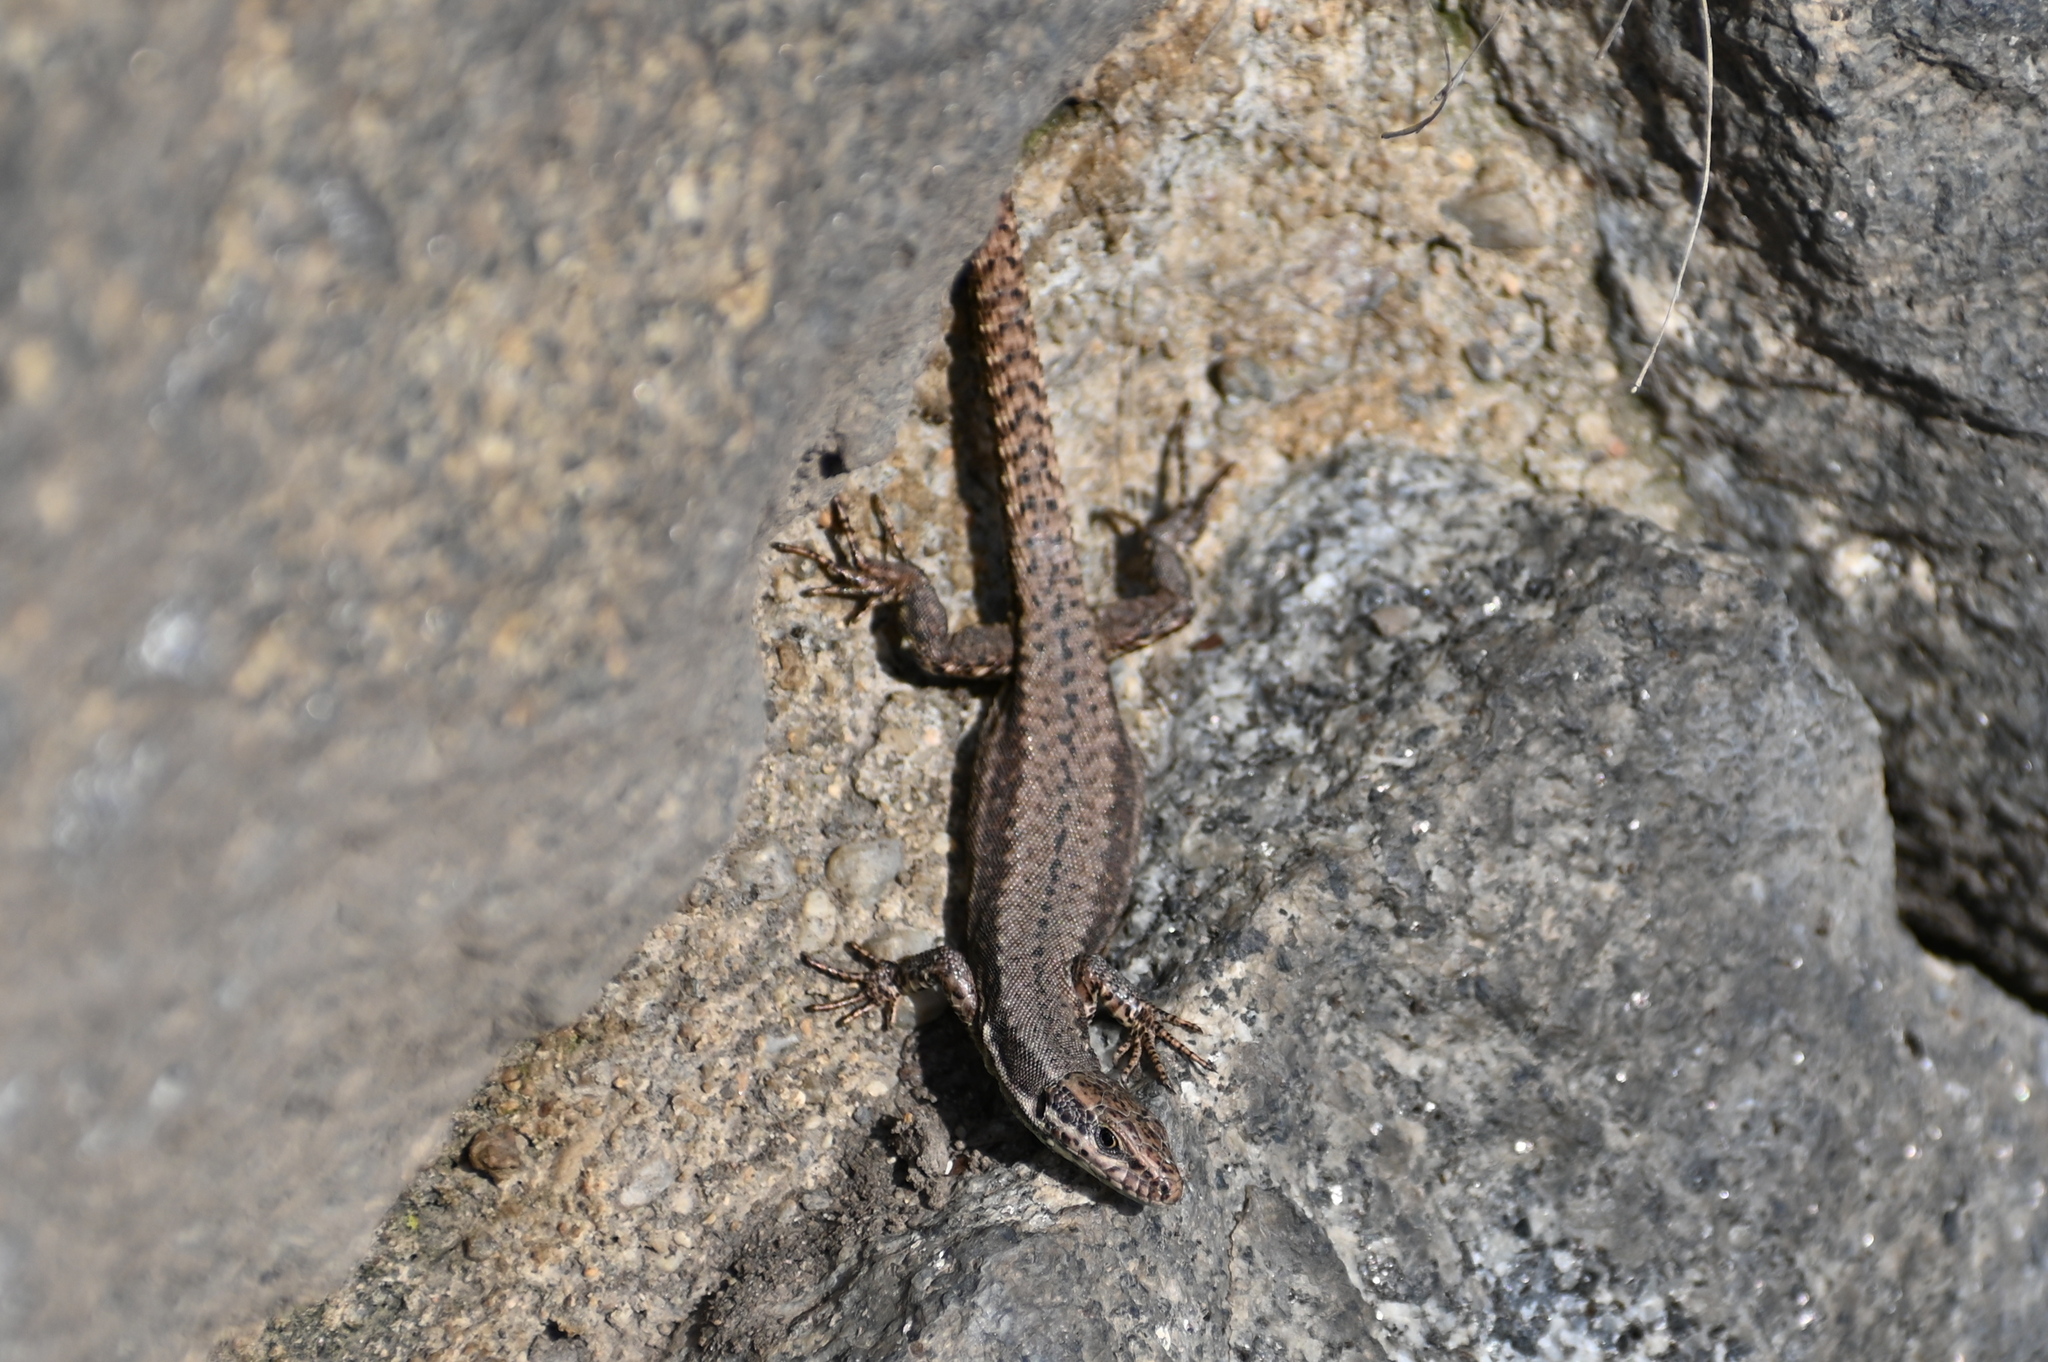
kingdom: Animalia
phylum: Chordata
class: Squamata
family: Lacertidae
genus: Podarcis
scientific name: Podarcis muralis
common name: Common wall lizard
